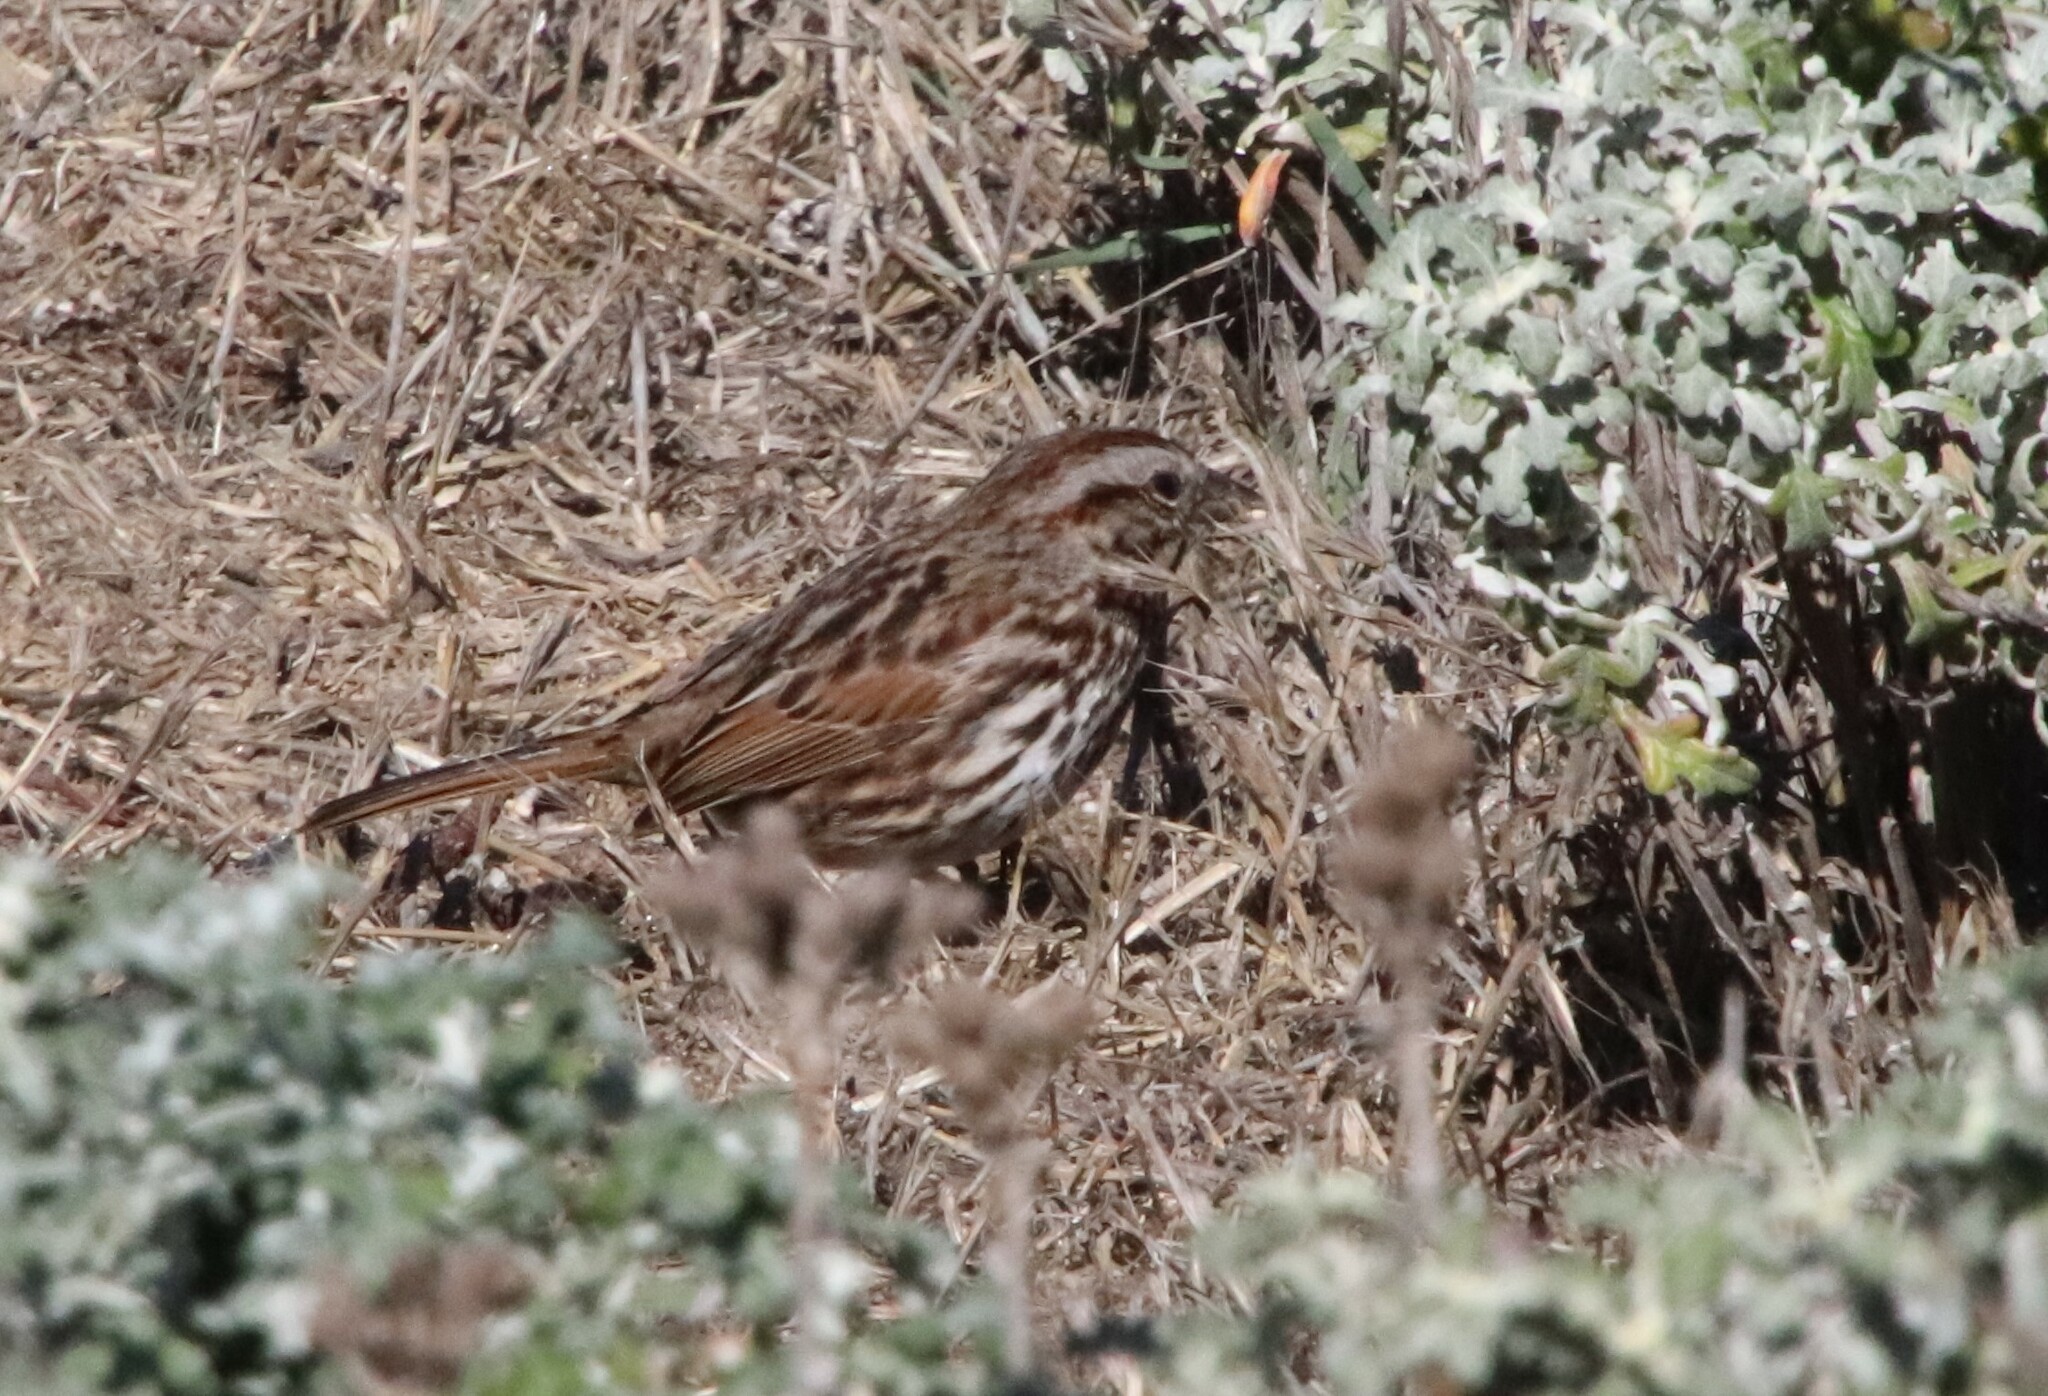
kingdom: Animalia
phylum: Chordata
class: Aves
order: Passeriformes
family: Passerellidae
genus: Melospiza
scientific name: Melospiza melodia
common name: Song sparrow
